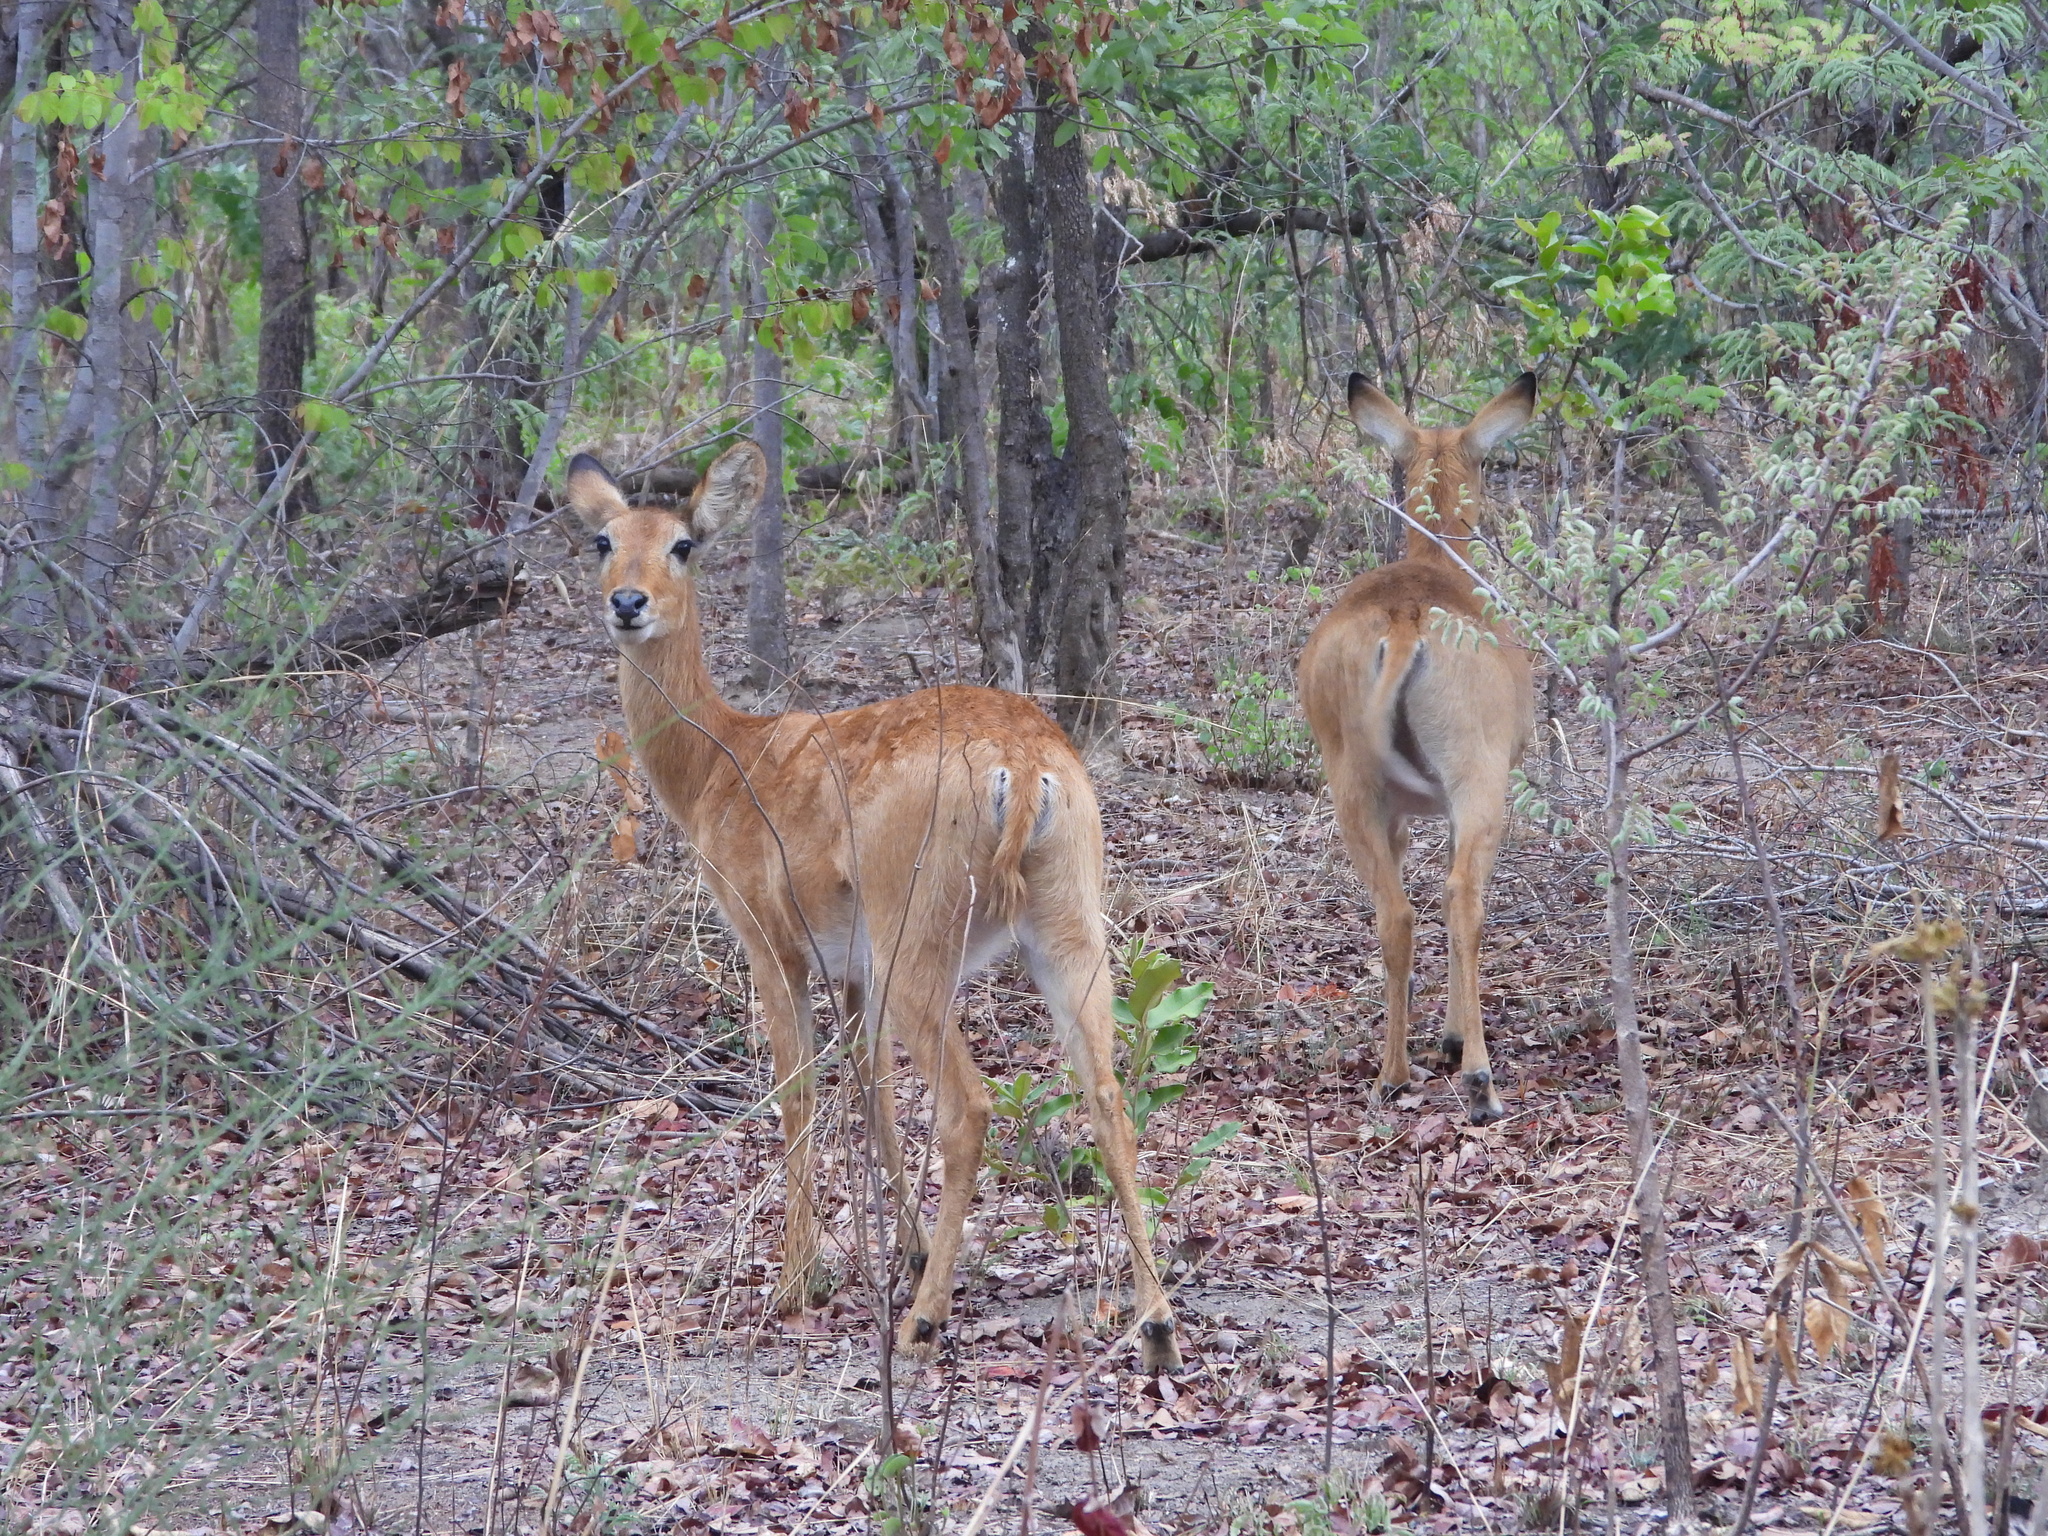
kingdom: Animalia
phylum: Chordata
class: Mammalia
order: Artiodactyla
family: Bovidae
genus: Kobus
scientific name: Kobus vardonii
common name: Puku
